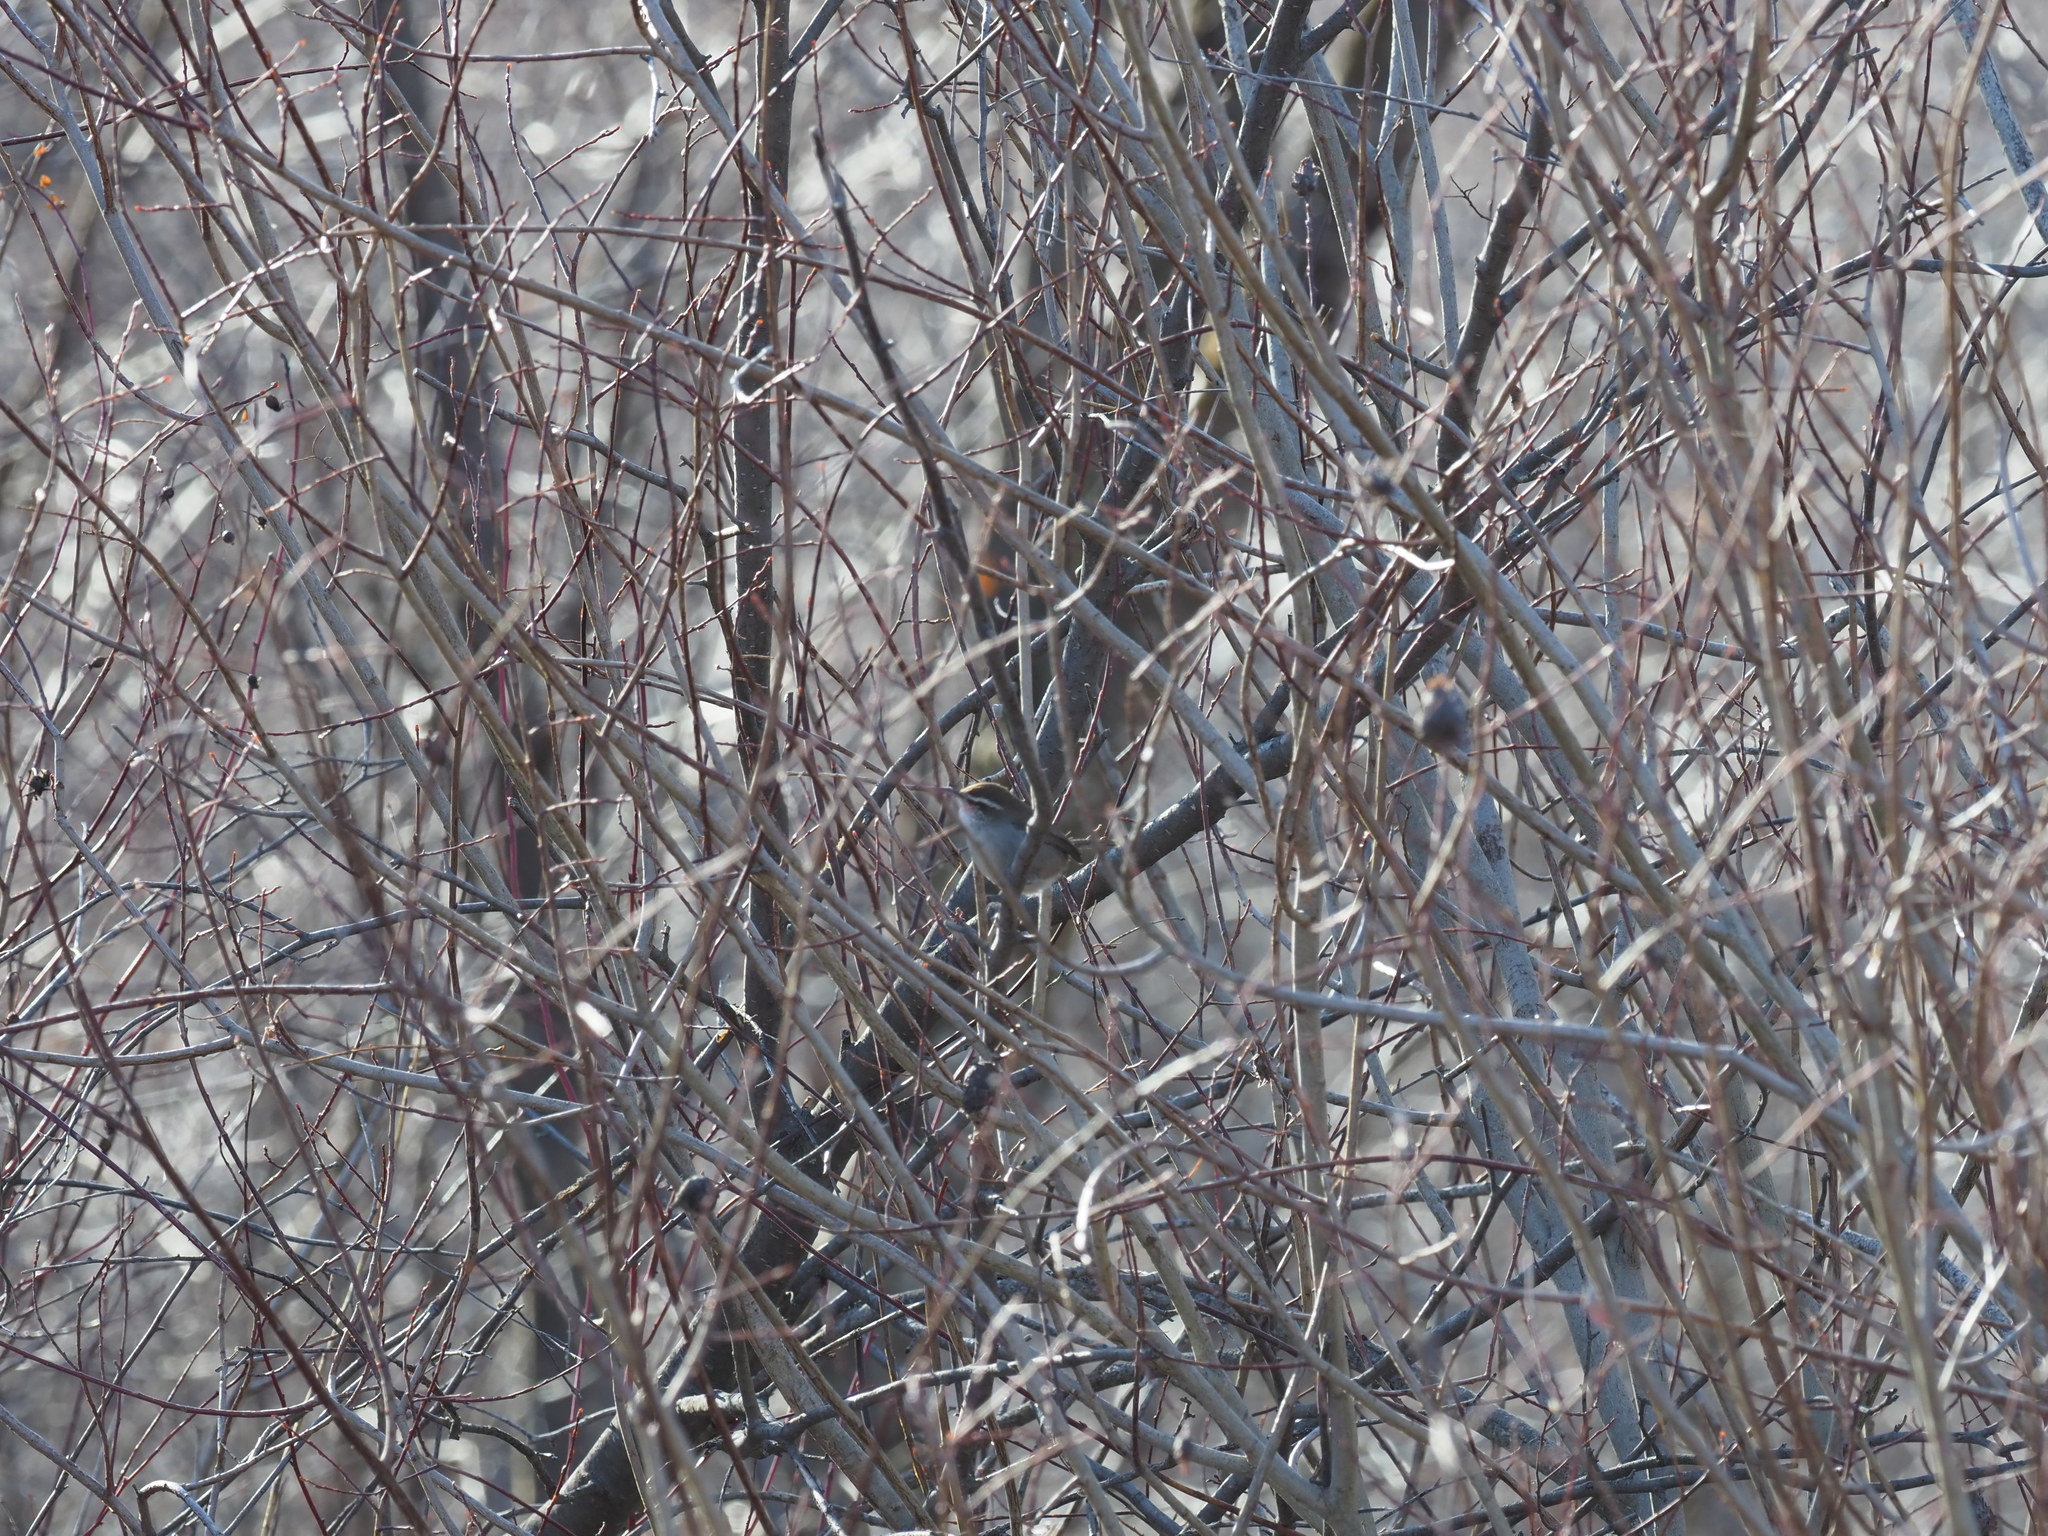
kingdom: Animalia
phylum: Chordata
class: Aves
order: Passeriformes
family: Troglodytidae
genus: Thryomanes
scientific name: Thryomanes bewickii
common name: Bewick's wren
